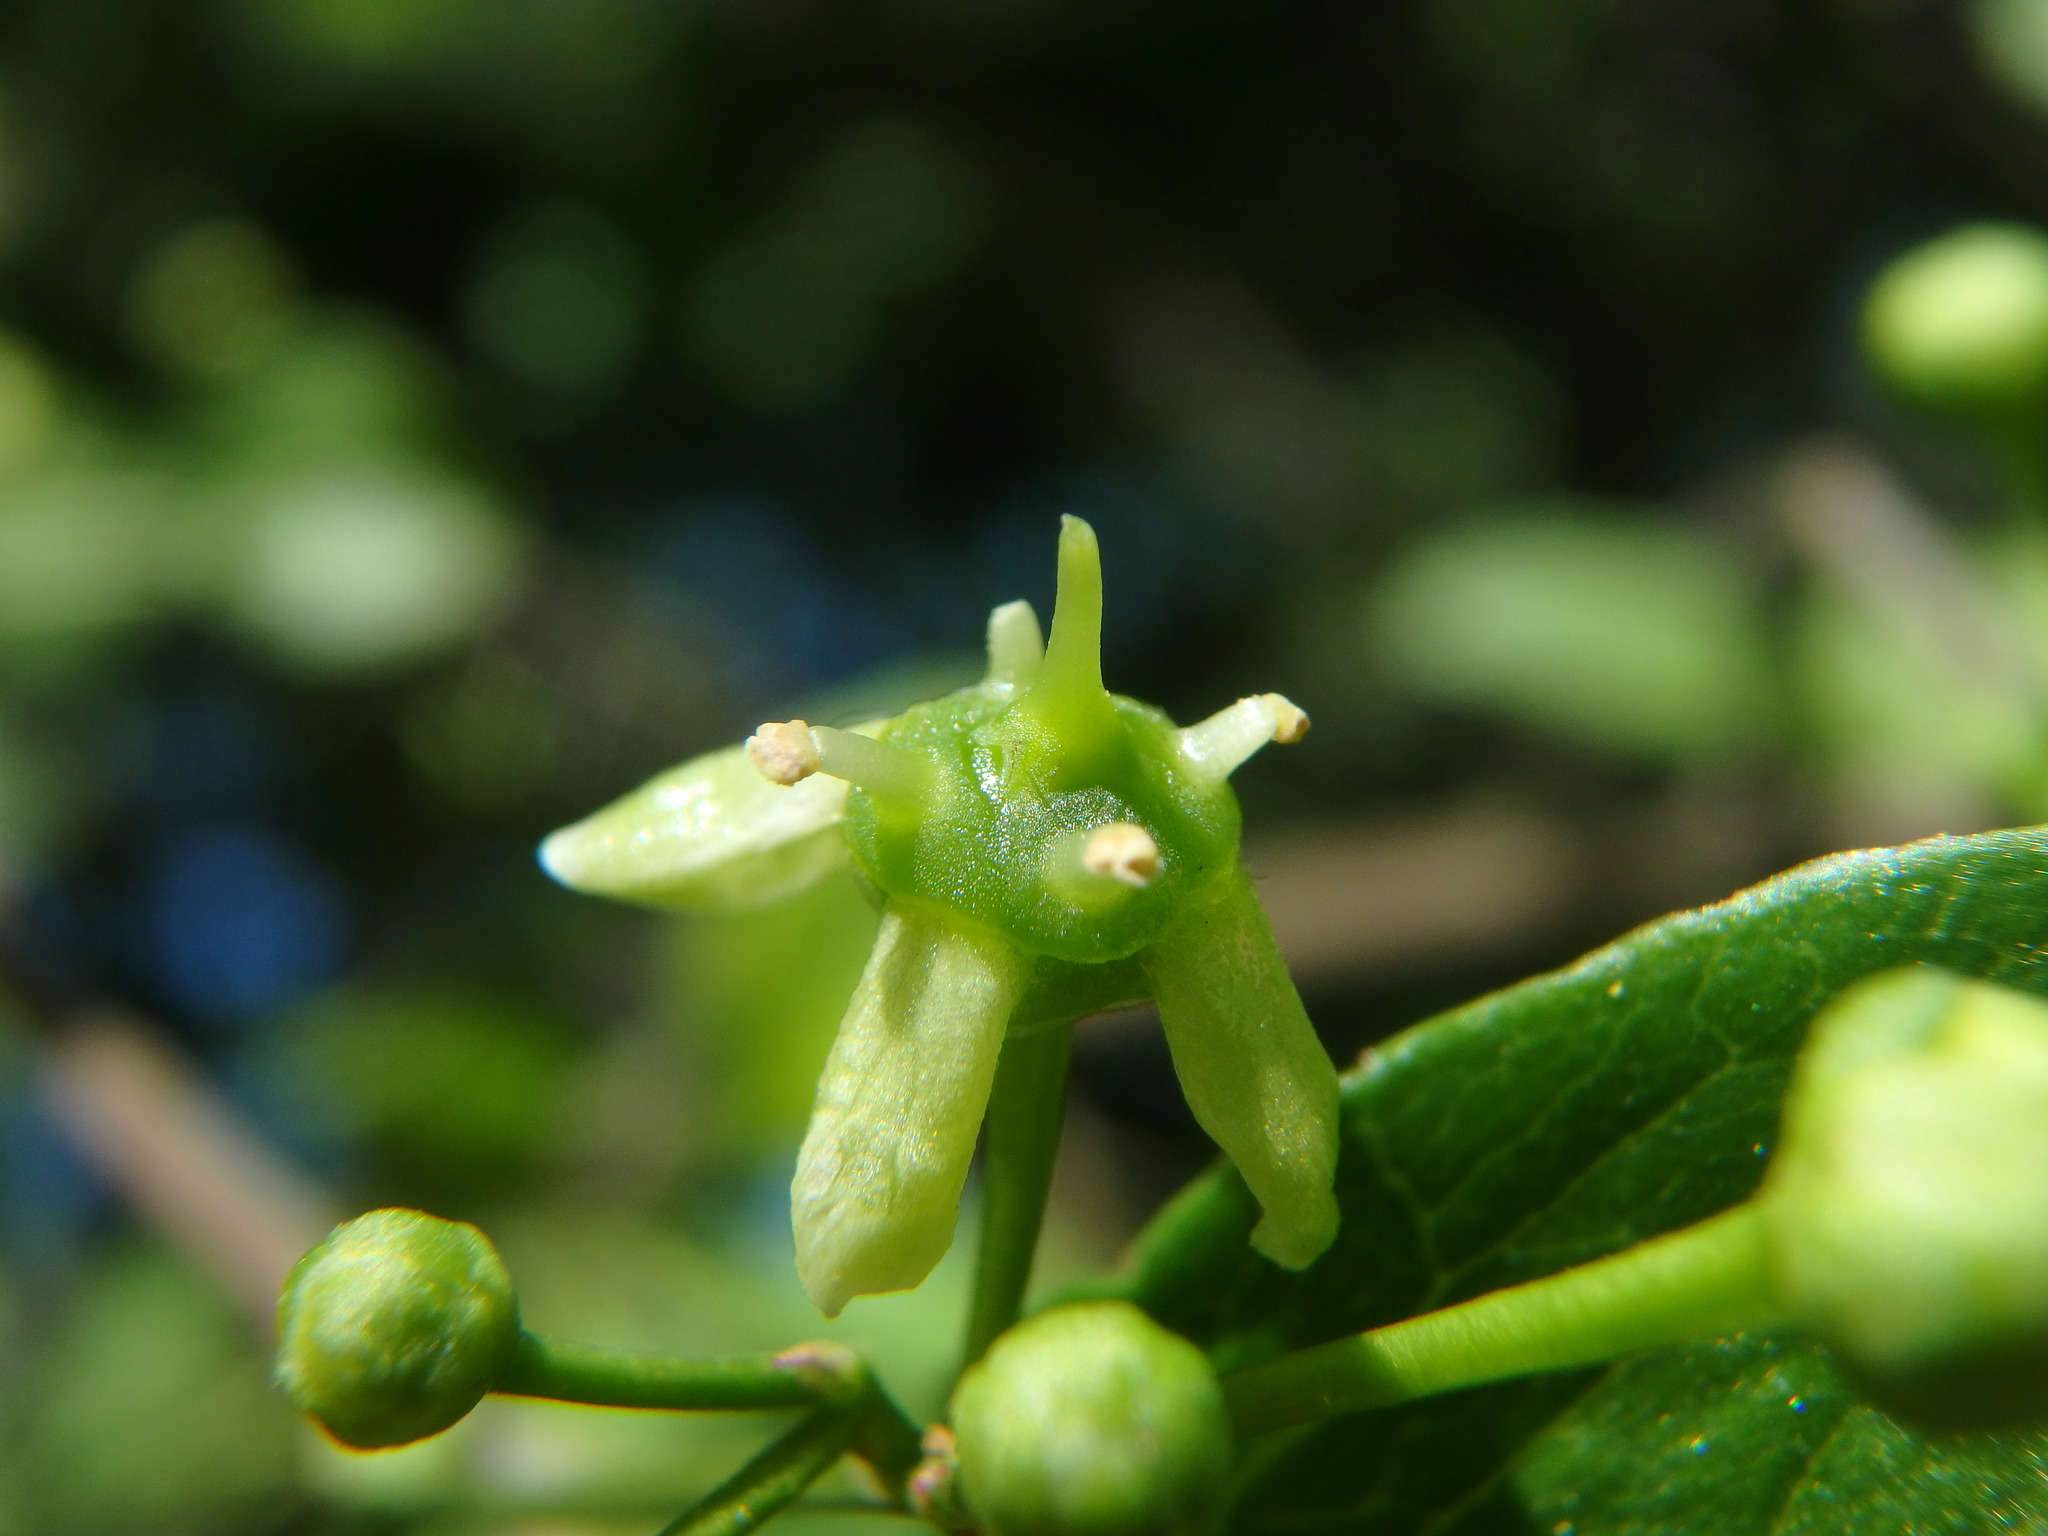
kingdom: Plantae
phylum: Tracheophyta
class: Magnoliopsida
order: Celastrales
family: Celastraceae
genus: Euonymus
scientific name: Euonymus europaeus
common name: Spindle
